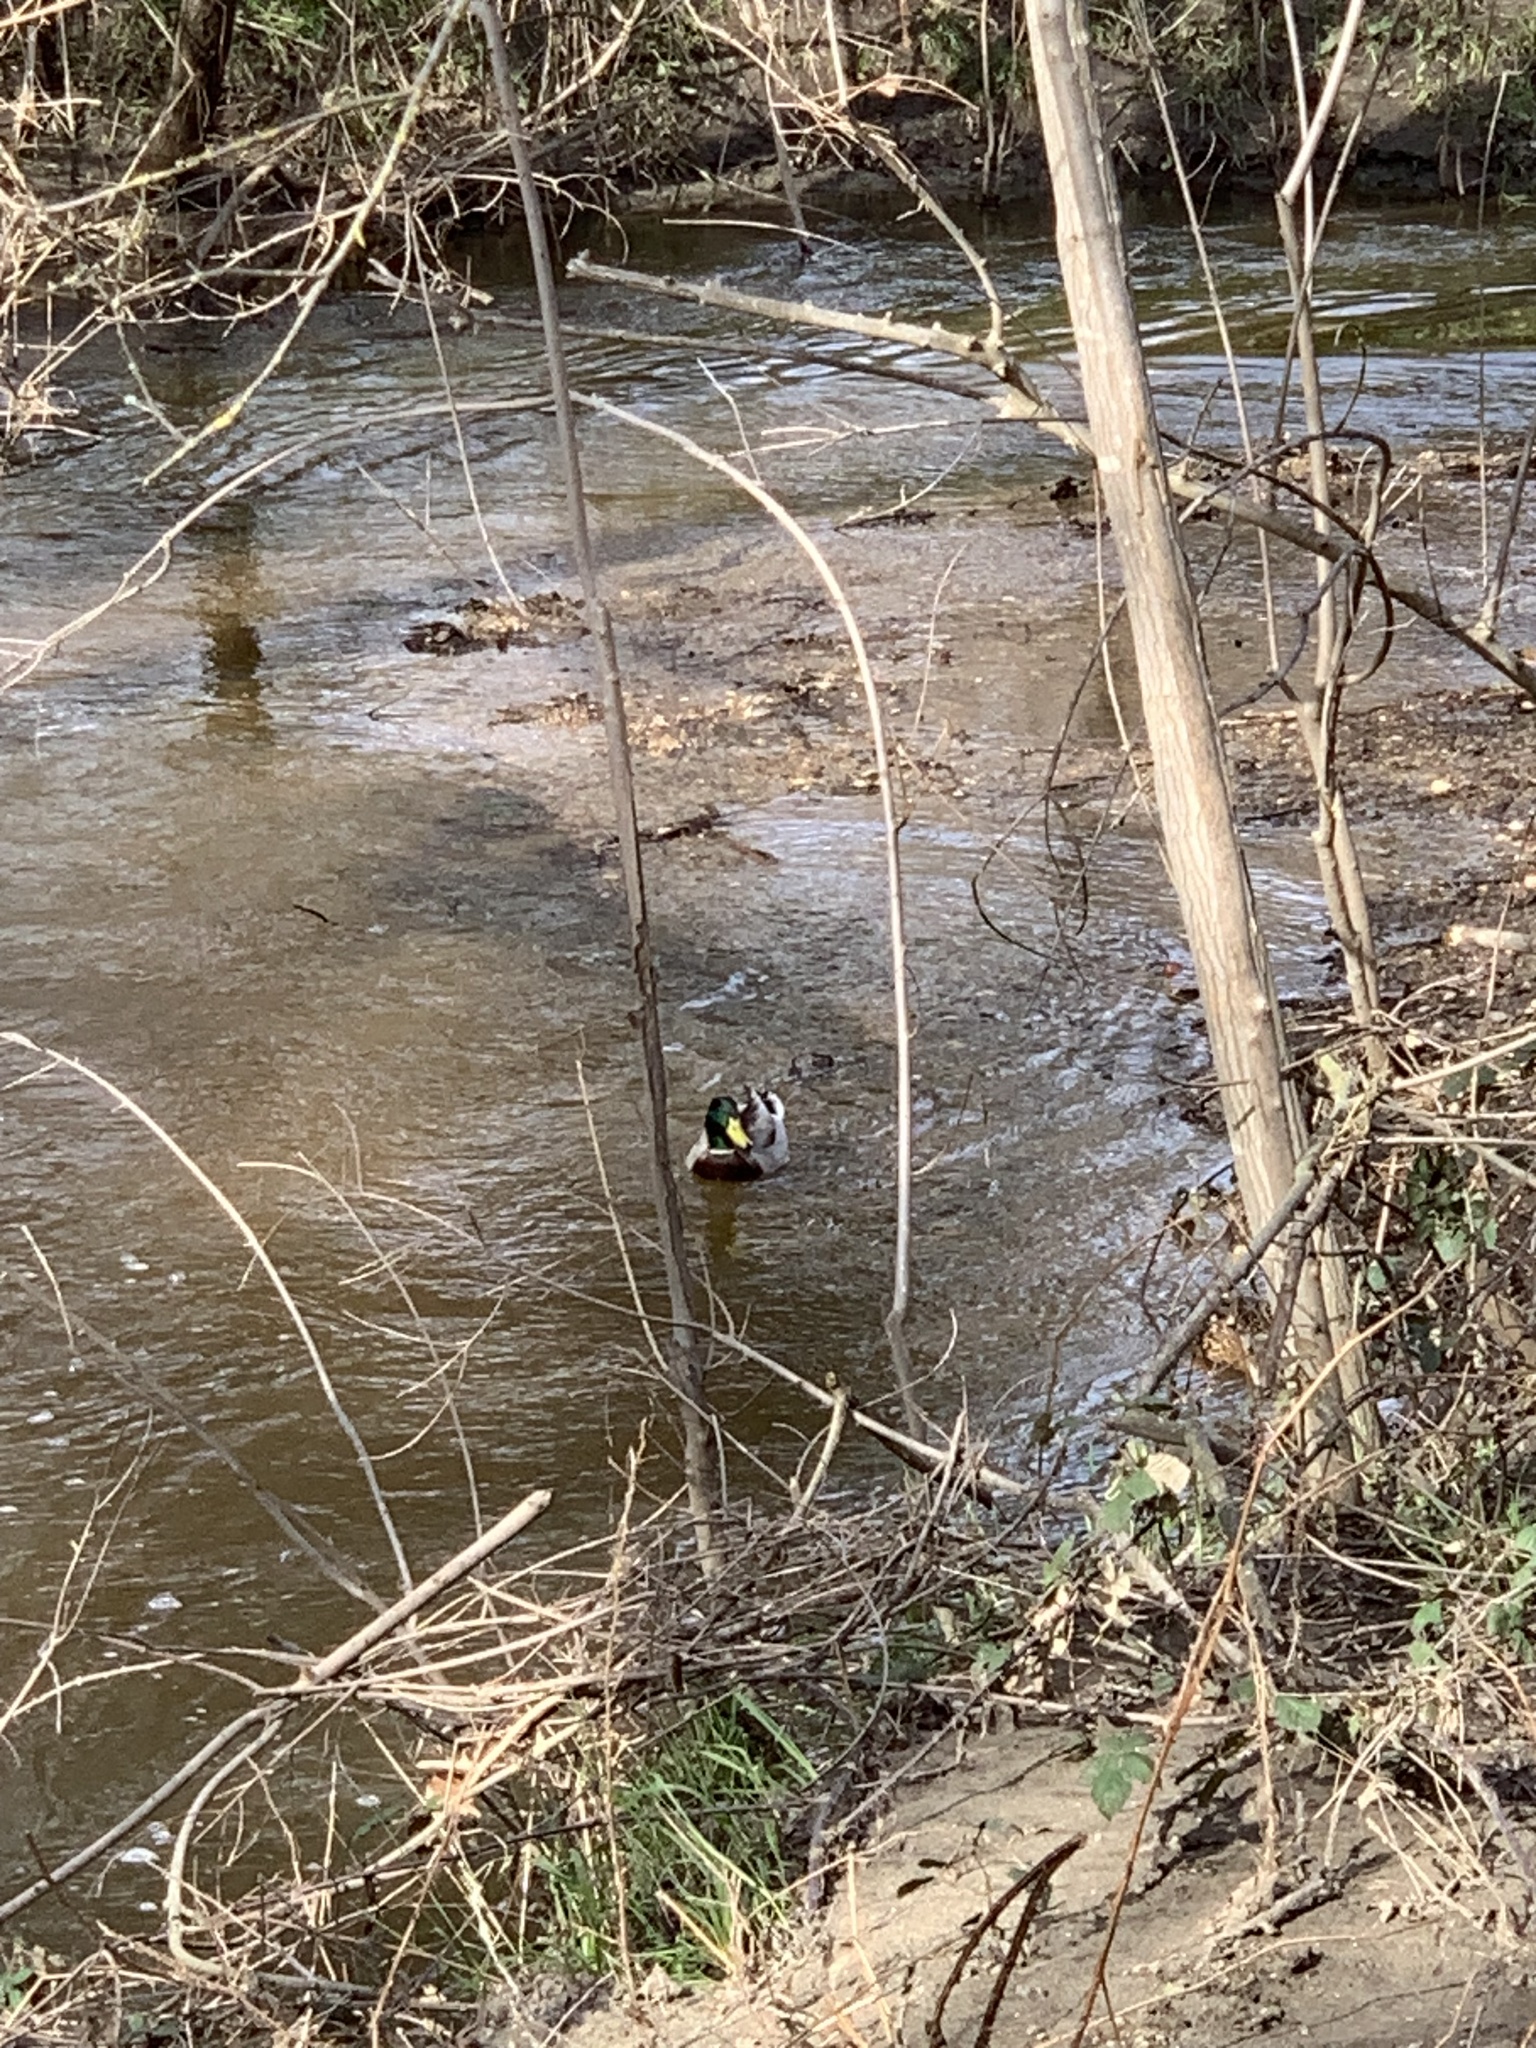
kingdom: Animalia
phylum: Chordata
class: Aves
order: Anseriformes
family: Anatidae
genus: Anas
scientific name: Anas platyrhynchos
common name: Mallard
